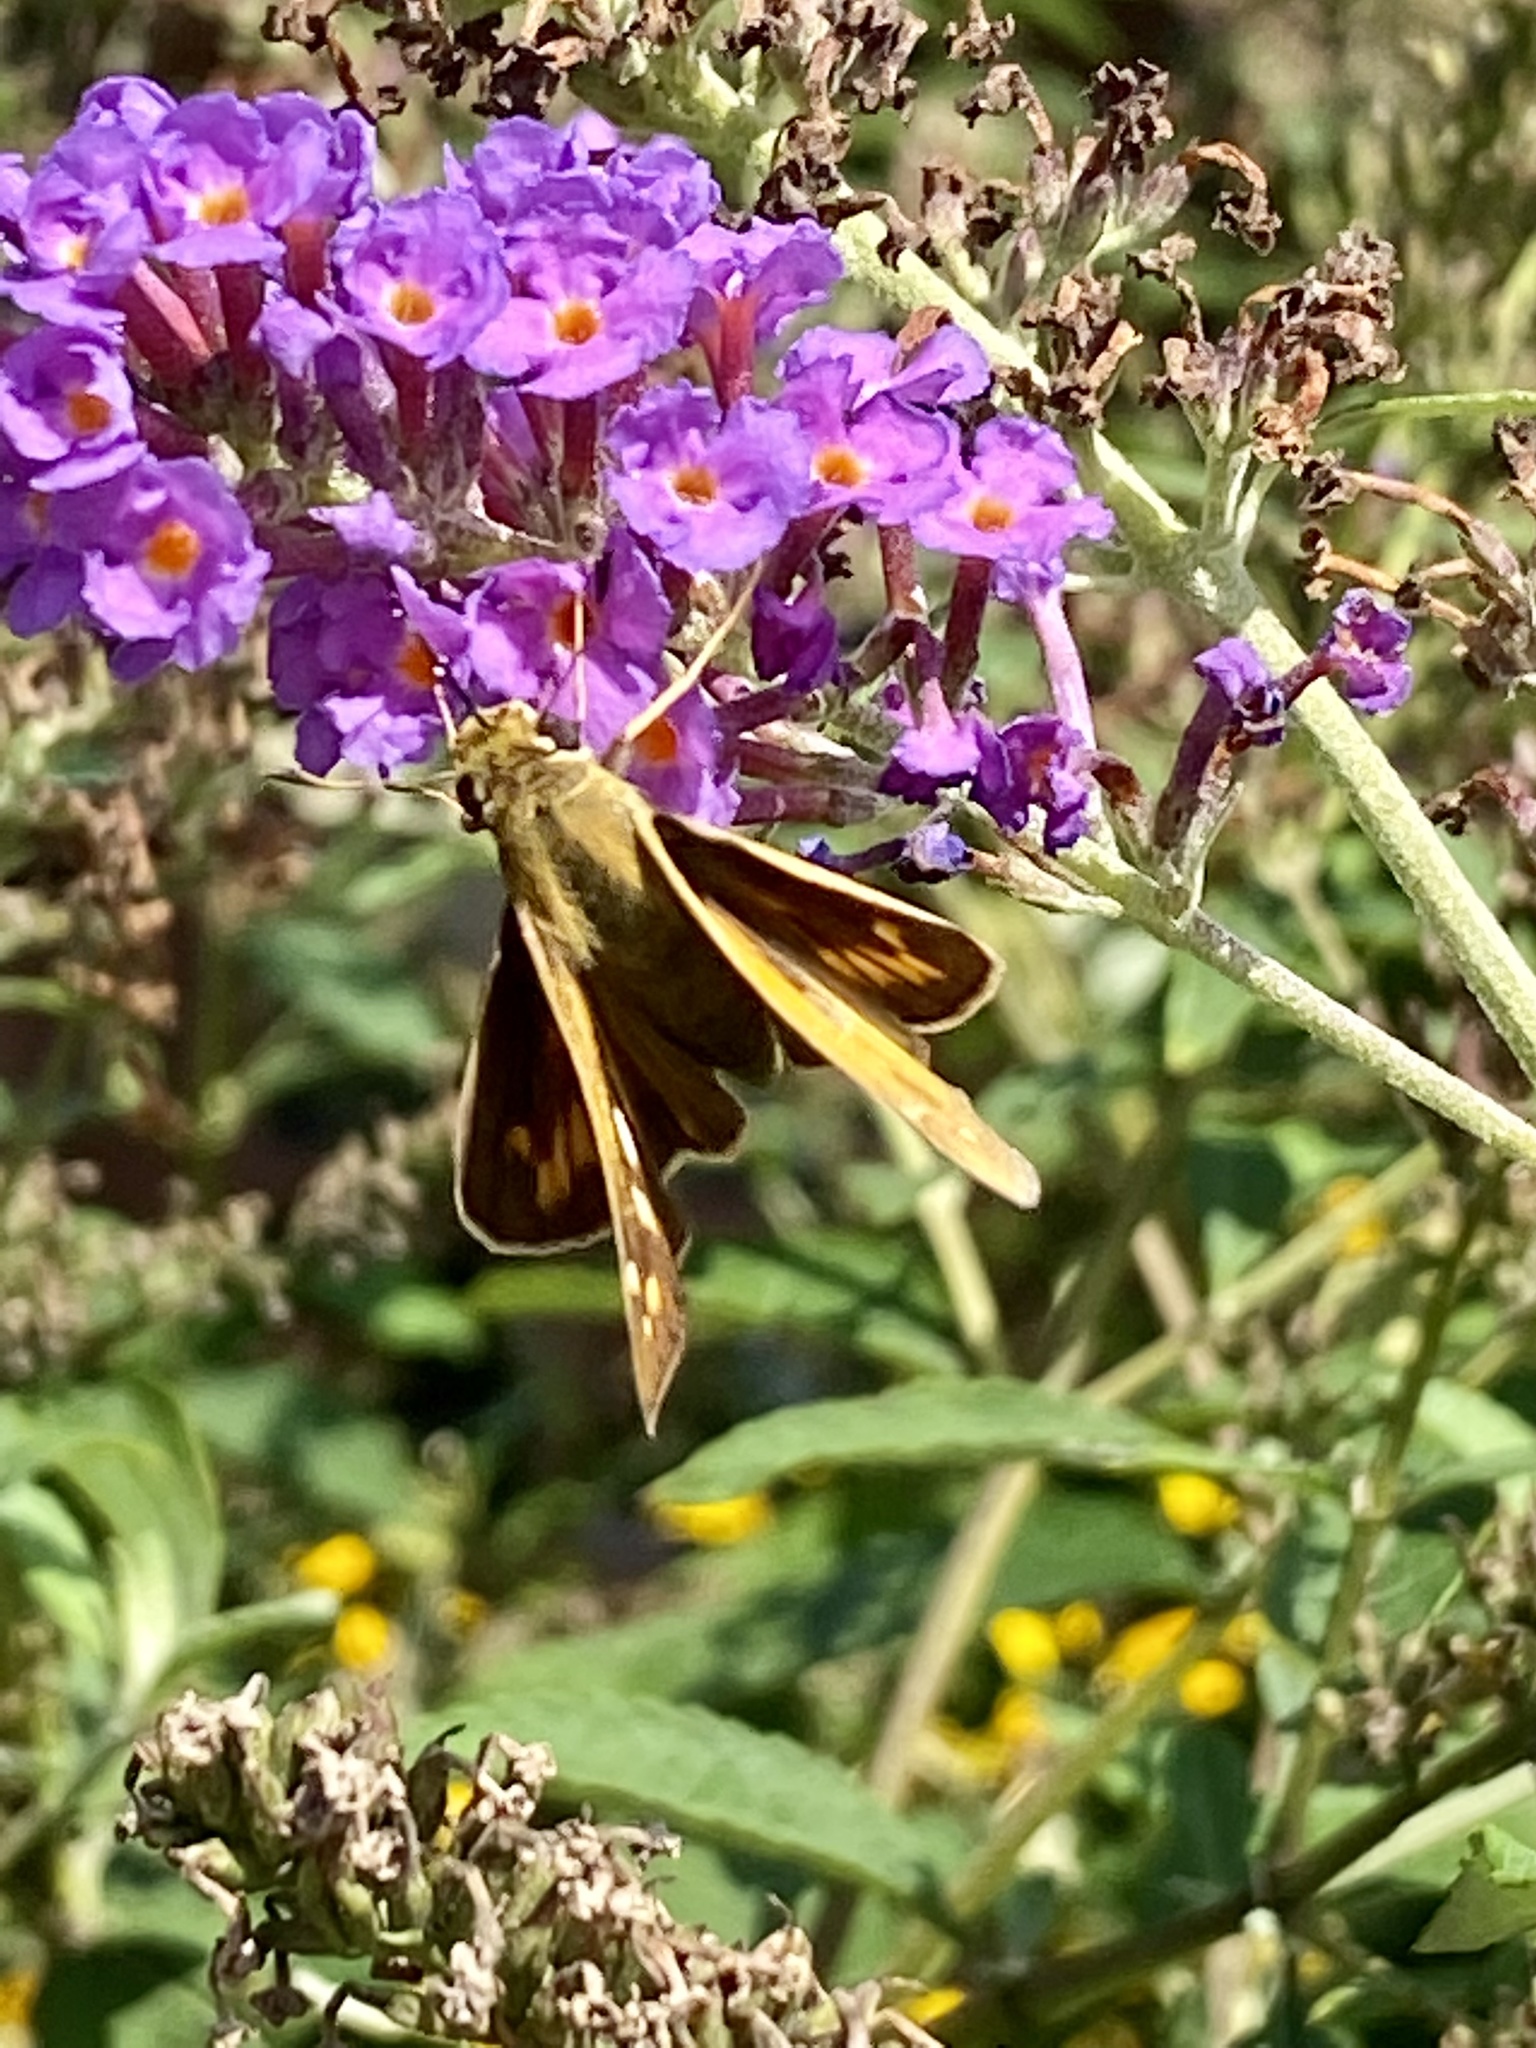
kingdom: Animalia
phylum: Arthropoda
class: Insecta
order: Lepidoptera
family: Hesperiidae
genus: Atalopedes
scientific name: Atalopedes
